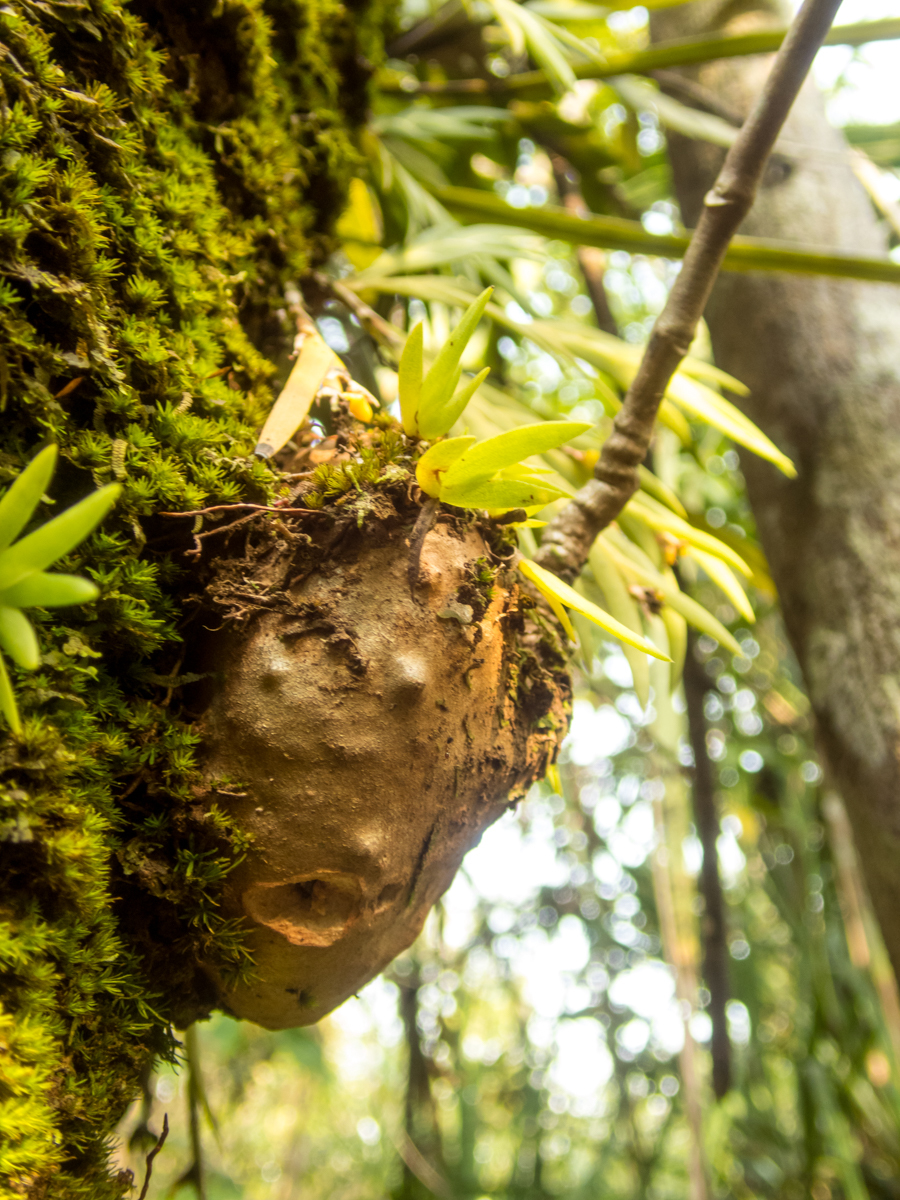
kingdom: Plantae
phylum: Tracheophyta
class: Magnoliopsida
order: Gentianales
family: Rubiaceae
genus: Hydnophytum
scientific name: Hydnophytum formicarum
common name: Ant plant
